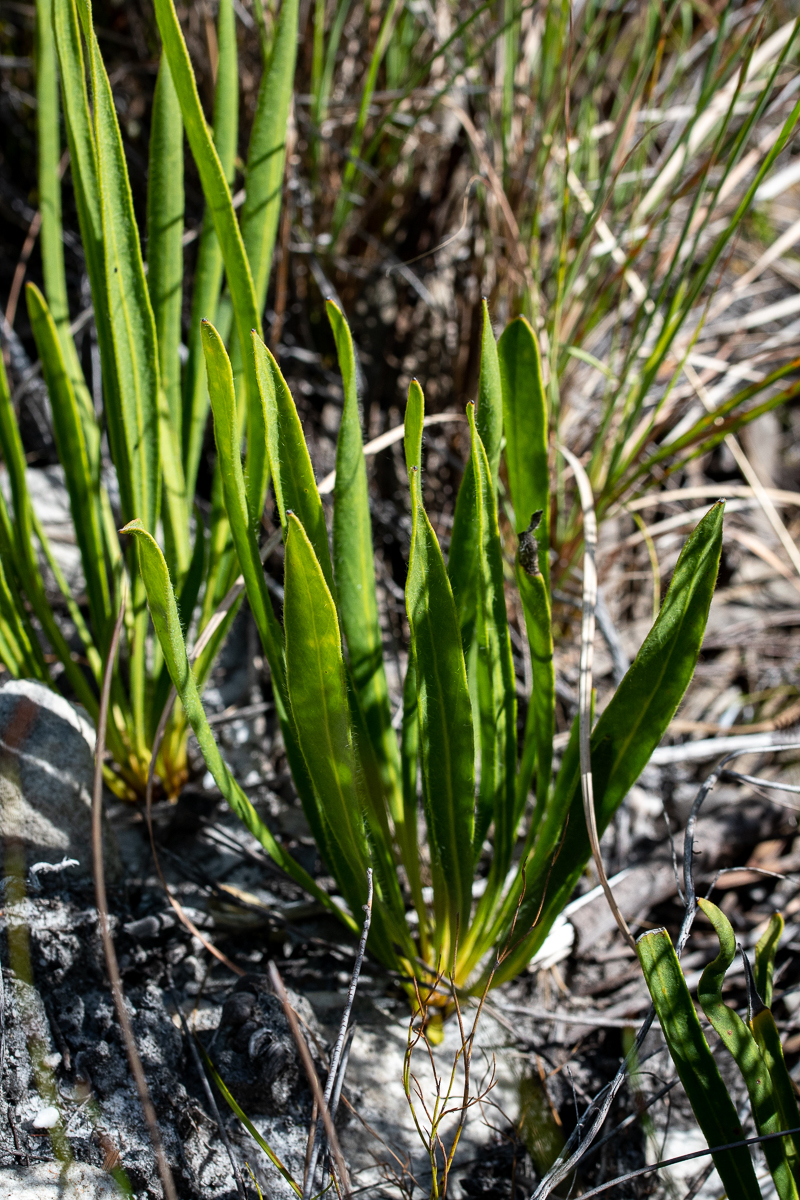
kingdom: Plantae
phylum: Tracheophyta
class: Magnoliopsida
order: Proteales
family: Proteaceae
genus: Protea
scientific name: Protea scabra
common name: Sandpaper-leaf sugarbush
